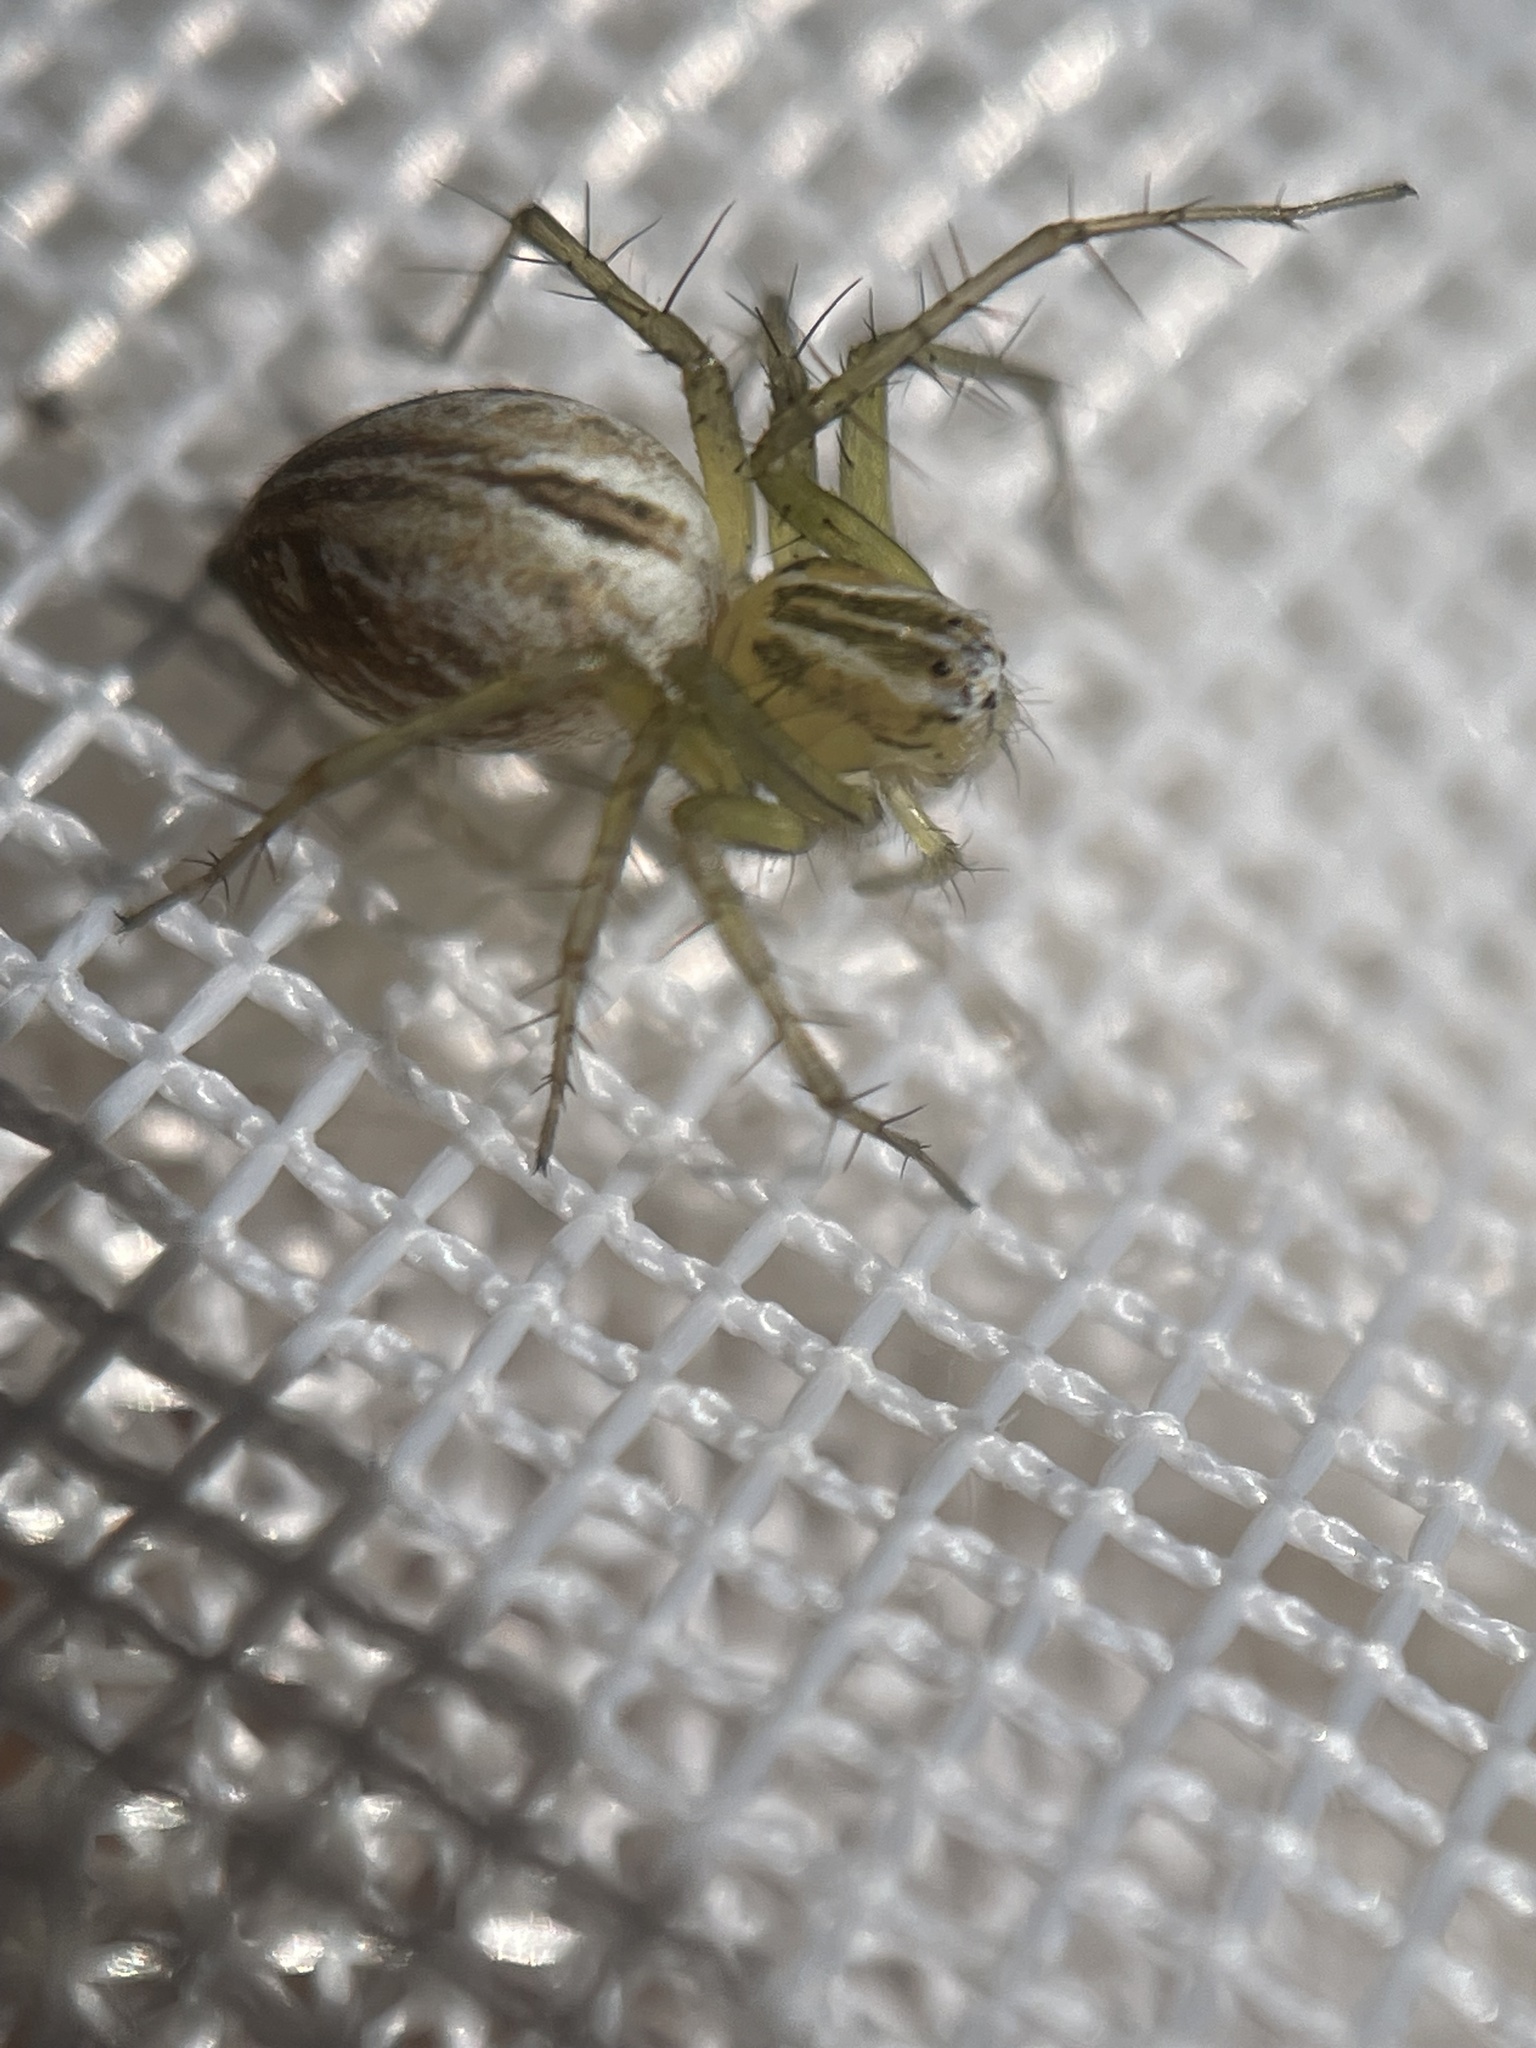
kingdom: Animalia
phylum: Arthropoda
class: Arachnida
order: Araneae
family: Oxyopidae
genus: Oxyopes
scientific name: Oxyopes salticus
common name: Lynx spiders
